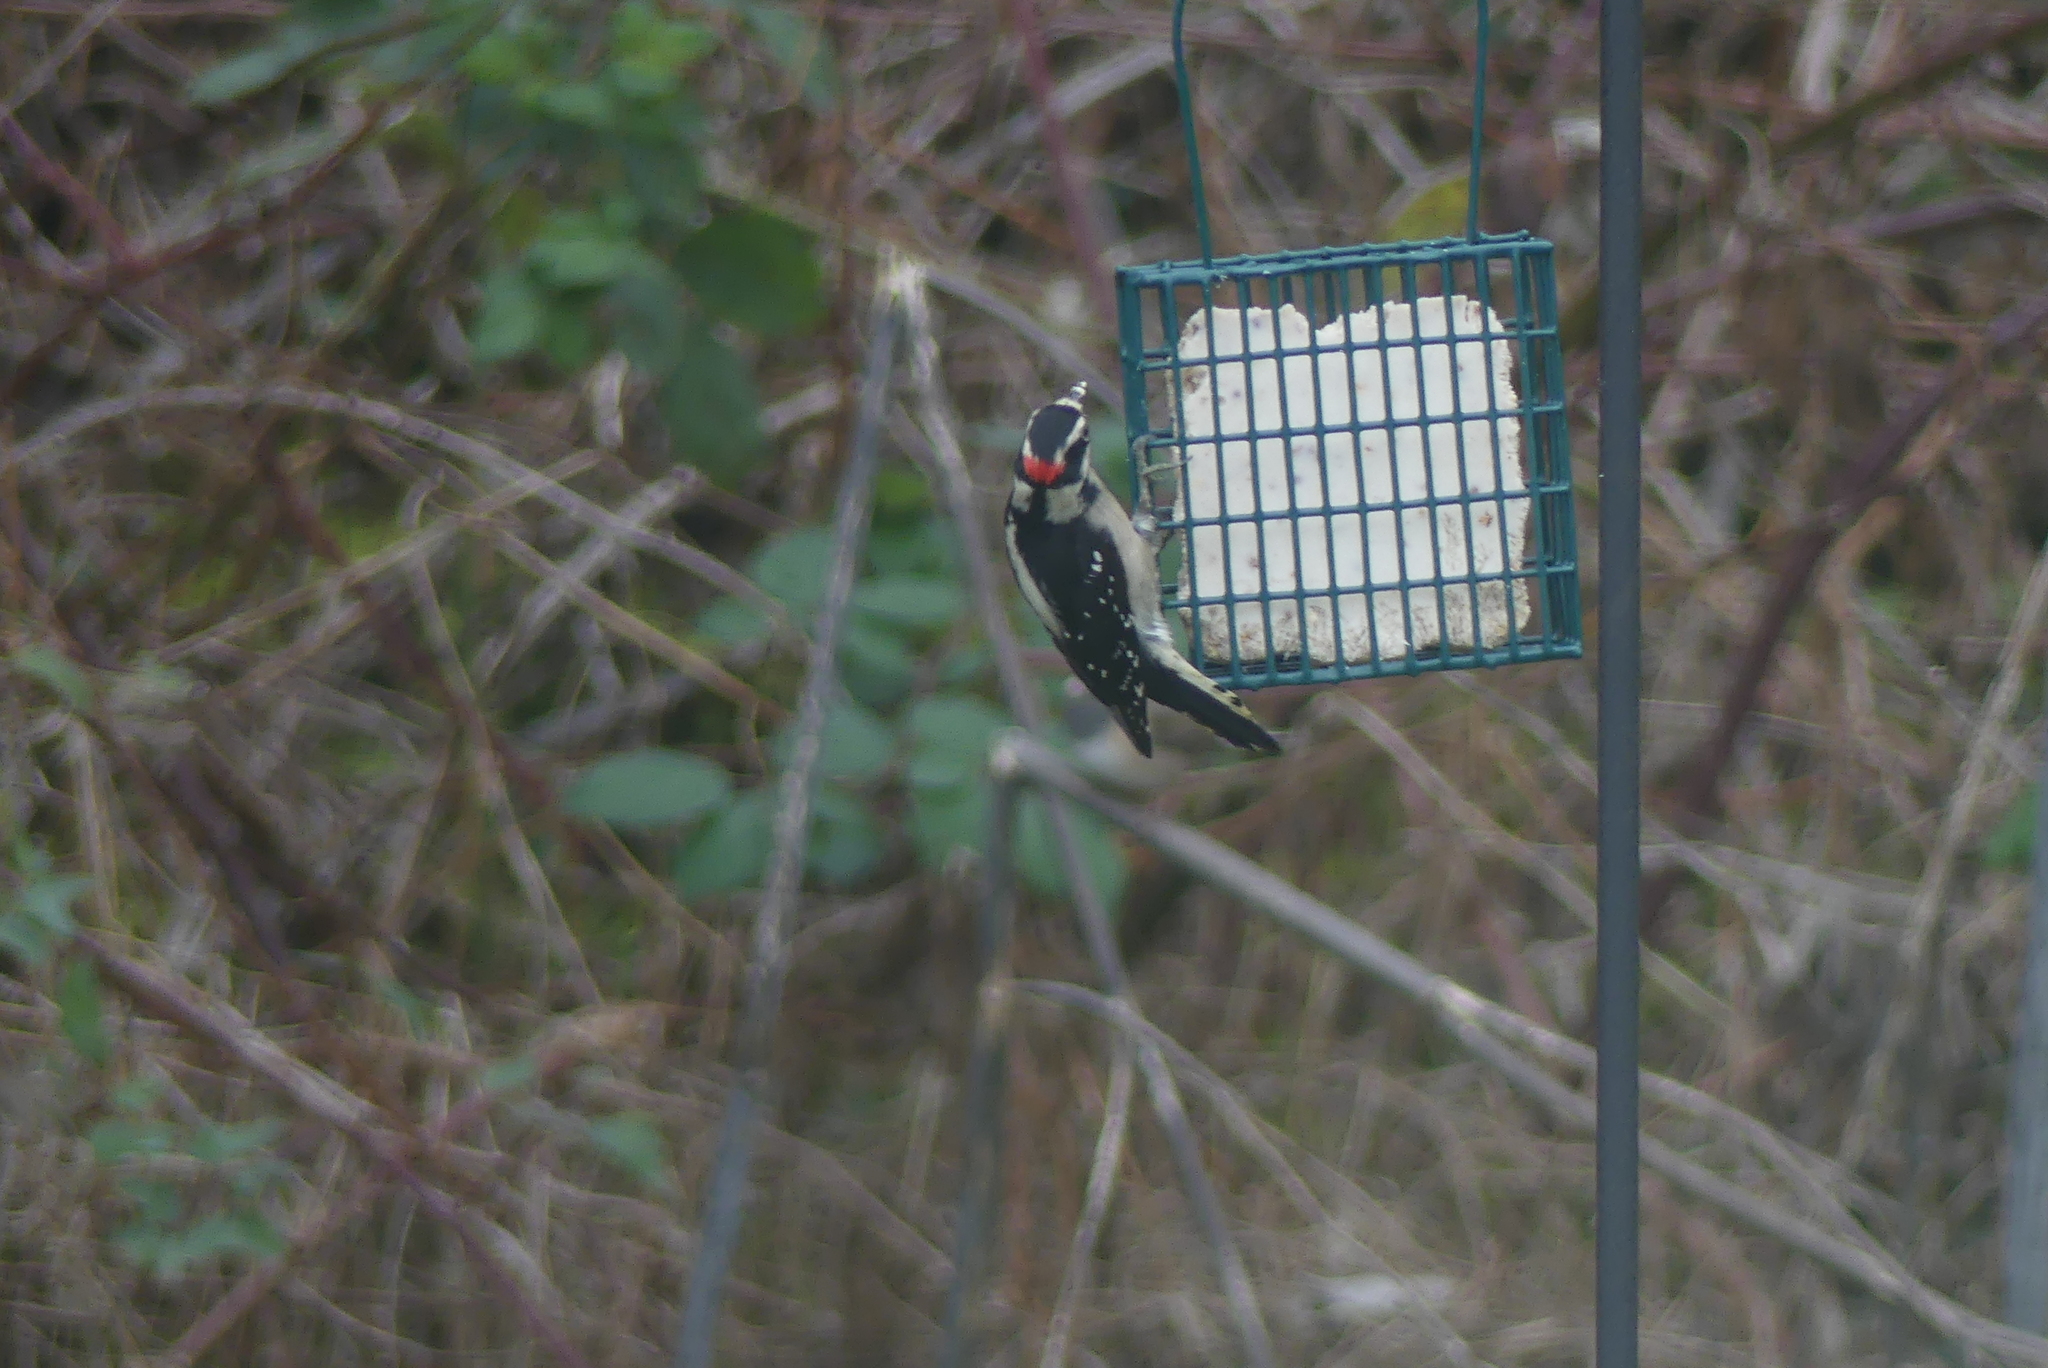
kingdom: Animalia
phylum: Chordata
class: Aves
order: Piciformes
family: Picidae
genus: Dryobates
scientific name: Dryobates pubescens
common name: Downy woodpecker
